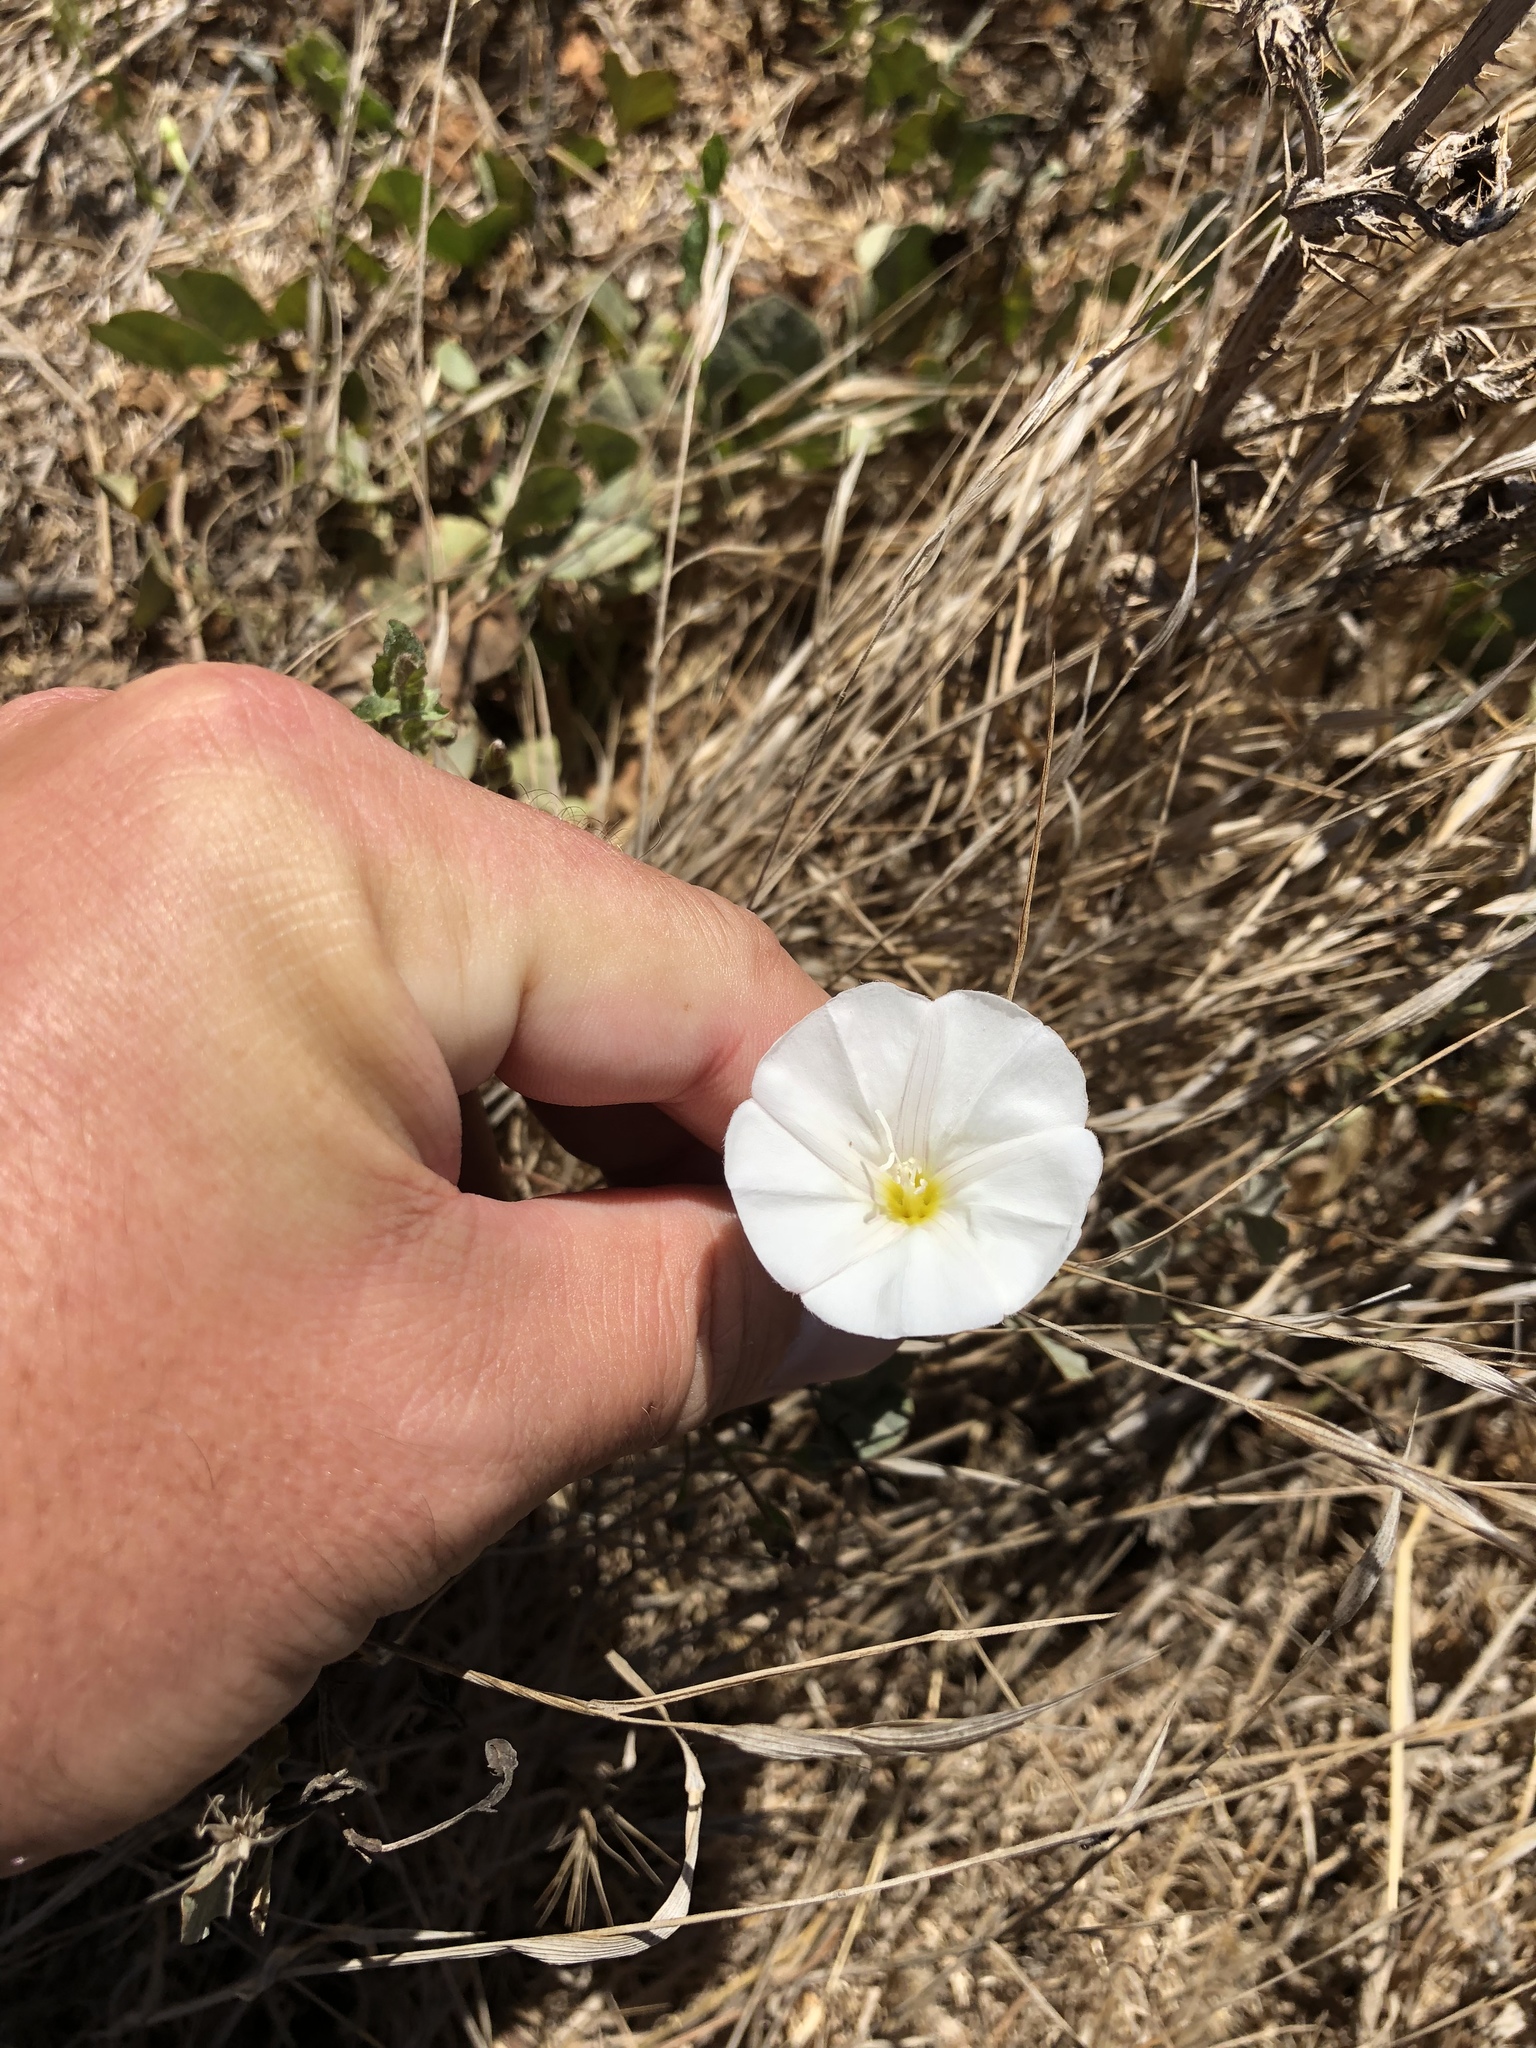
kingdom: Plantae
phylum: Tracheophyta
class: Magnoliopsida
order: Solanales
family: Convolvulaceae
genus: Convolvulus
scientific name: Convolvulus arvensis
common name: Field bindweed
